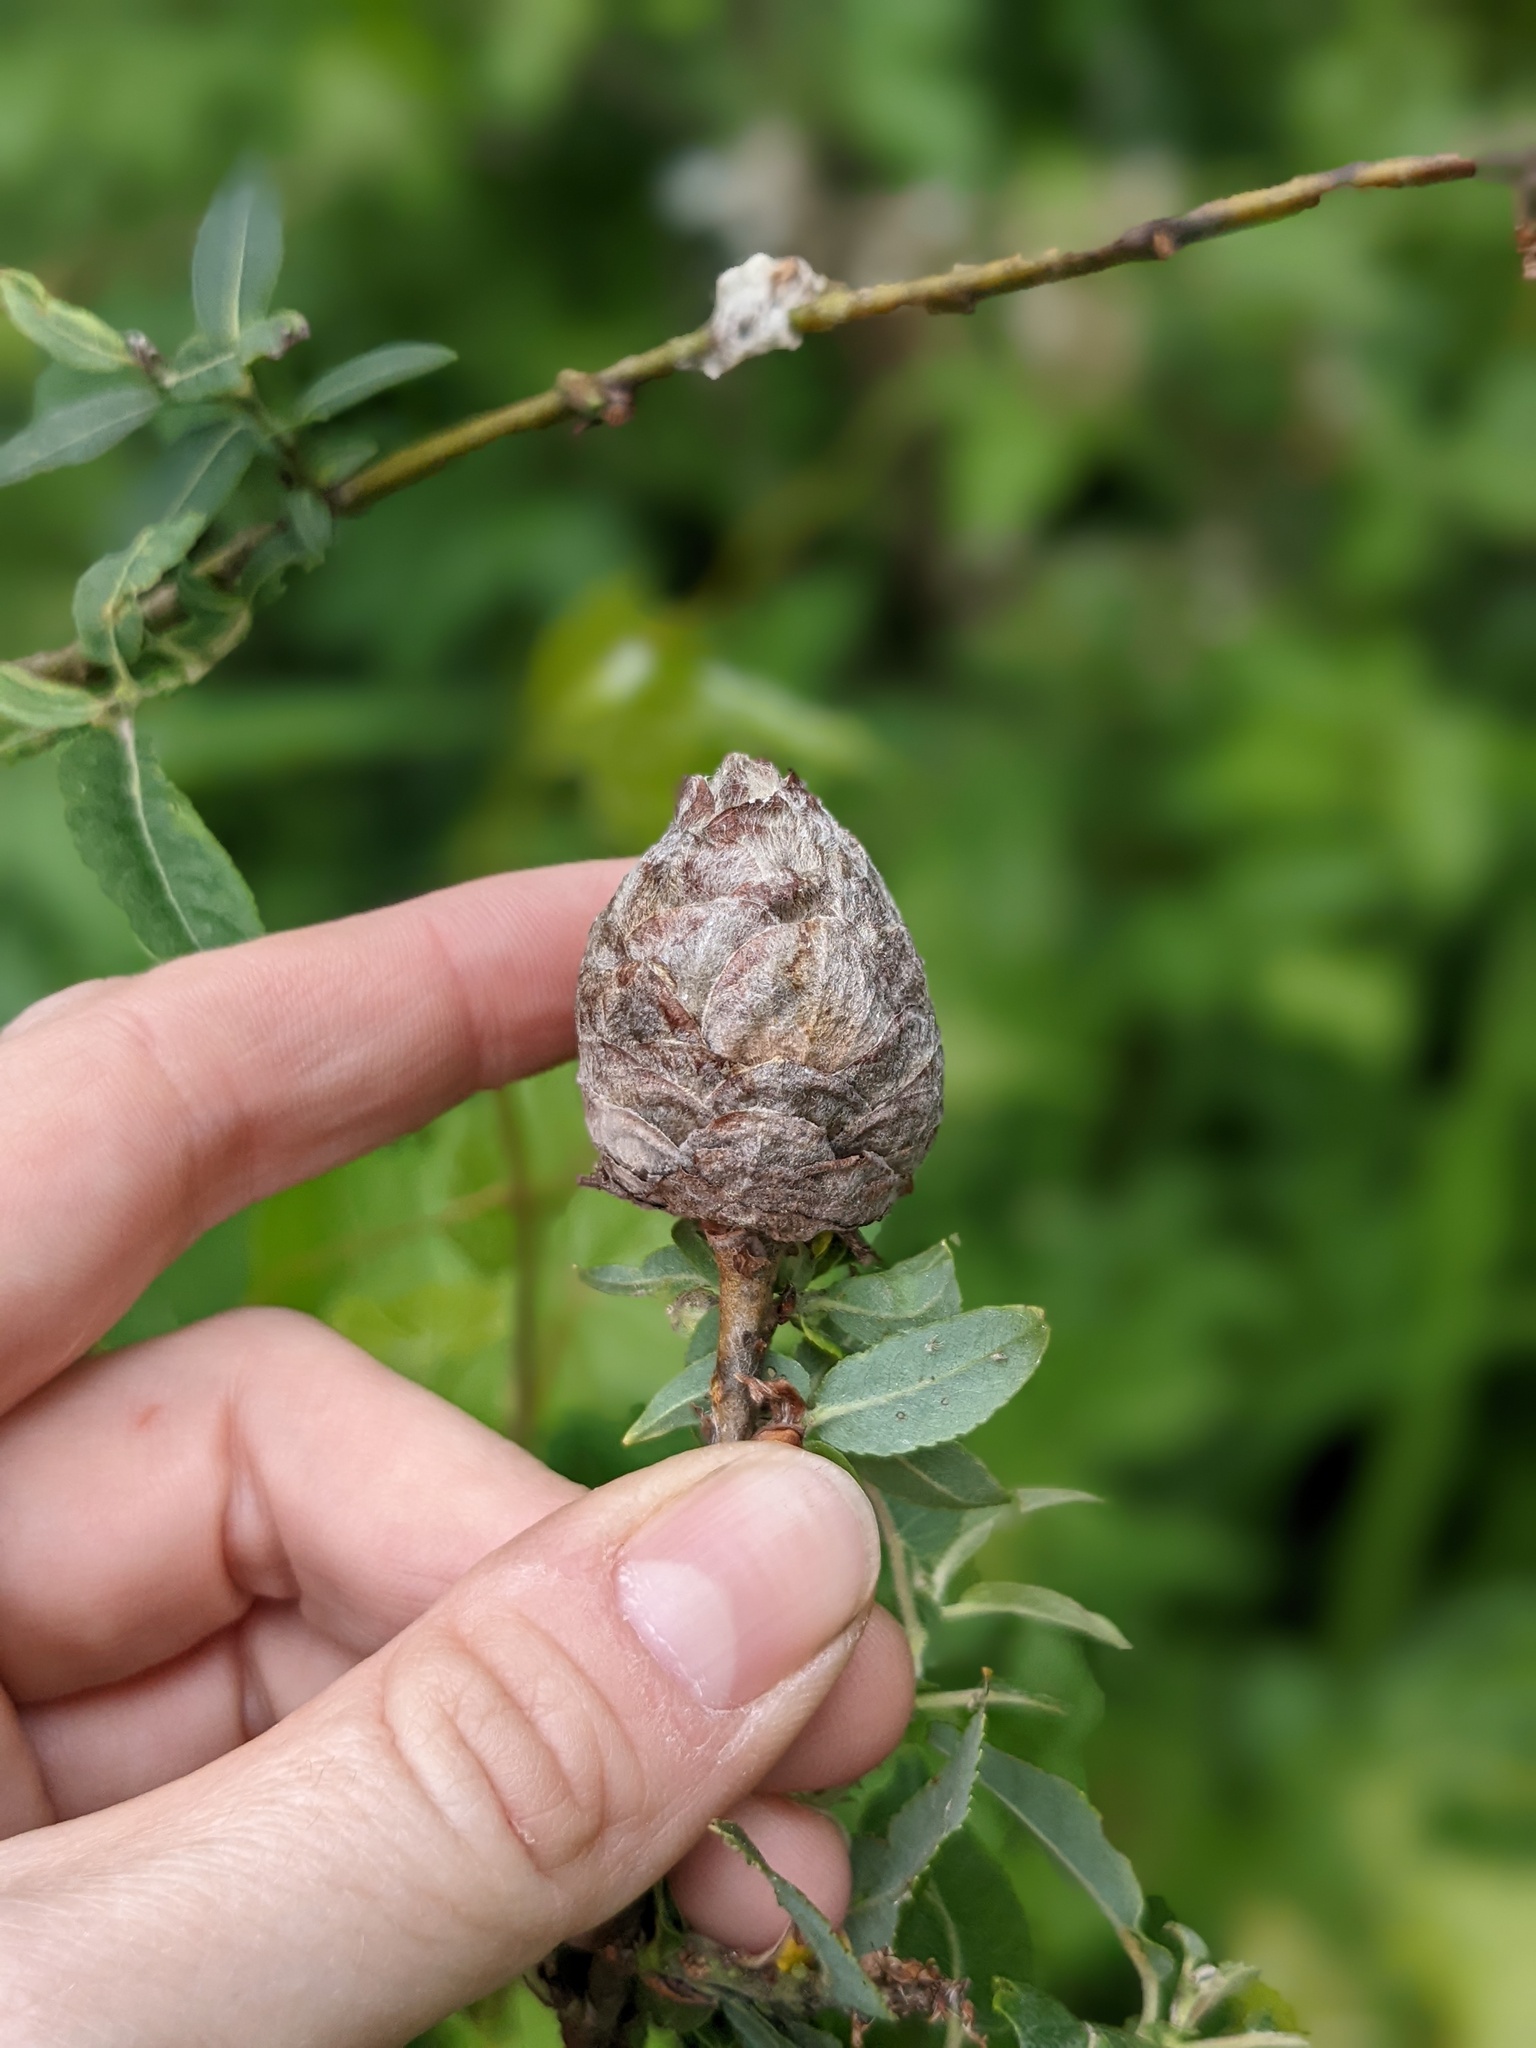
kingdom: Animalia
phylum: Arthropoda
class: Insecta
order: Diptera
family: Cecidomyiidae
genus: Rabdophaga
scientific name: Rabdophaga strobiloides
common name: Willow pinecone gall midge
